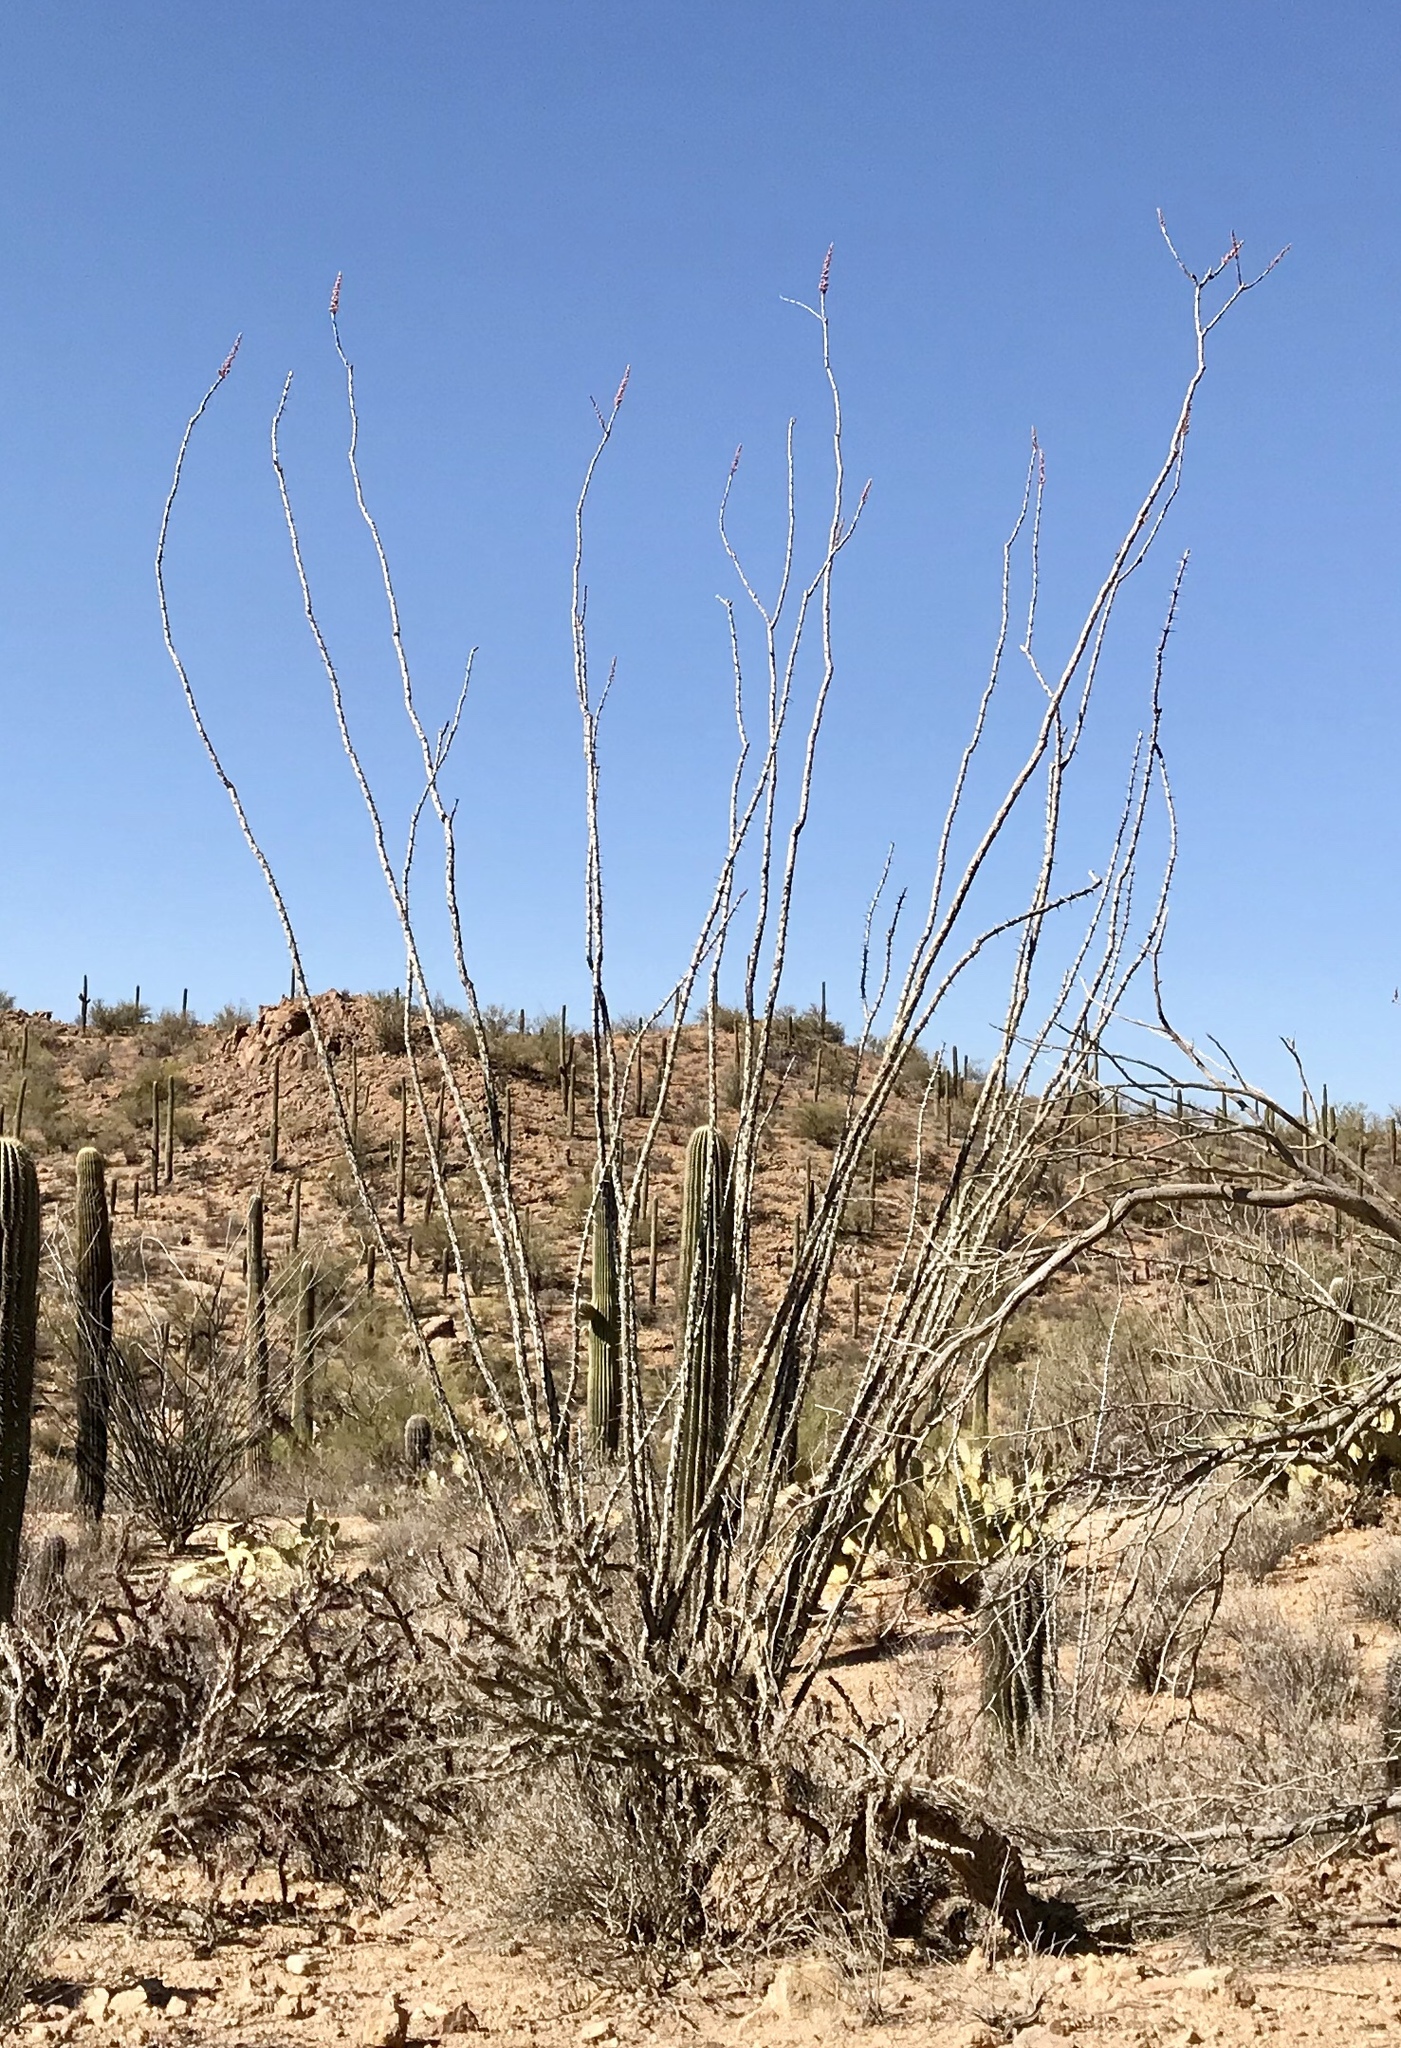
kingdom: Plantae
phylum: Tracheophyta
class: Magnoliopsida
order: Ericales
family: Fouquieriaceae
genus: Fouquieria
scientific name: Fouquieria splendens
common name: Vine-cactus
